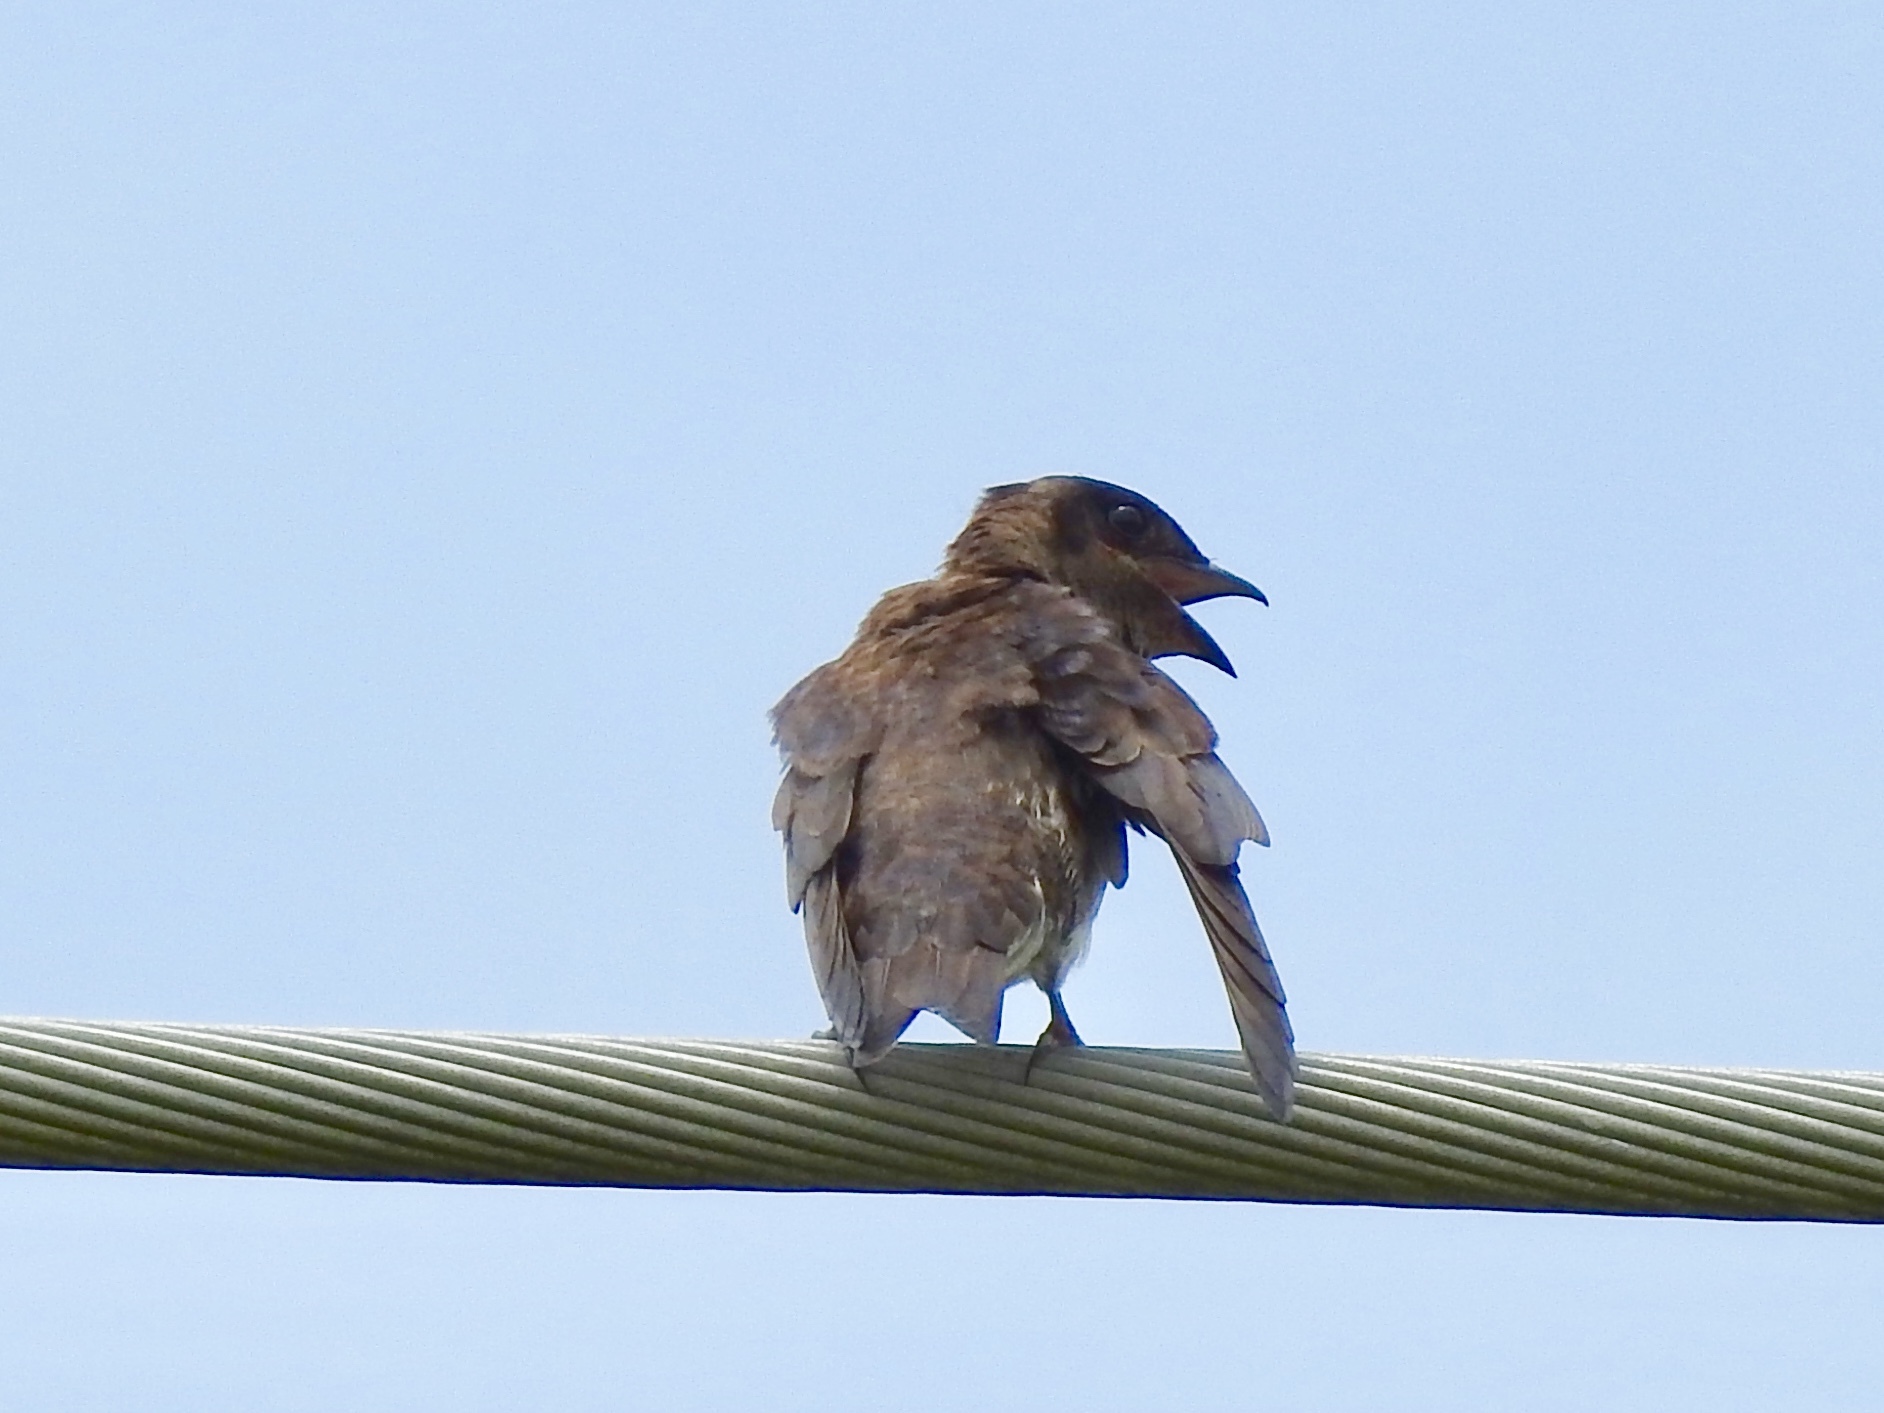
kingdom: Animalia
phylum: Chordata
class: Aves
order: Passeriformes
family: Hirundinidae
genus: Progne
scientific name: Progne subis
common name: Purple martin
